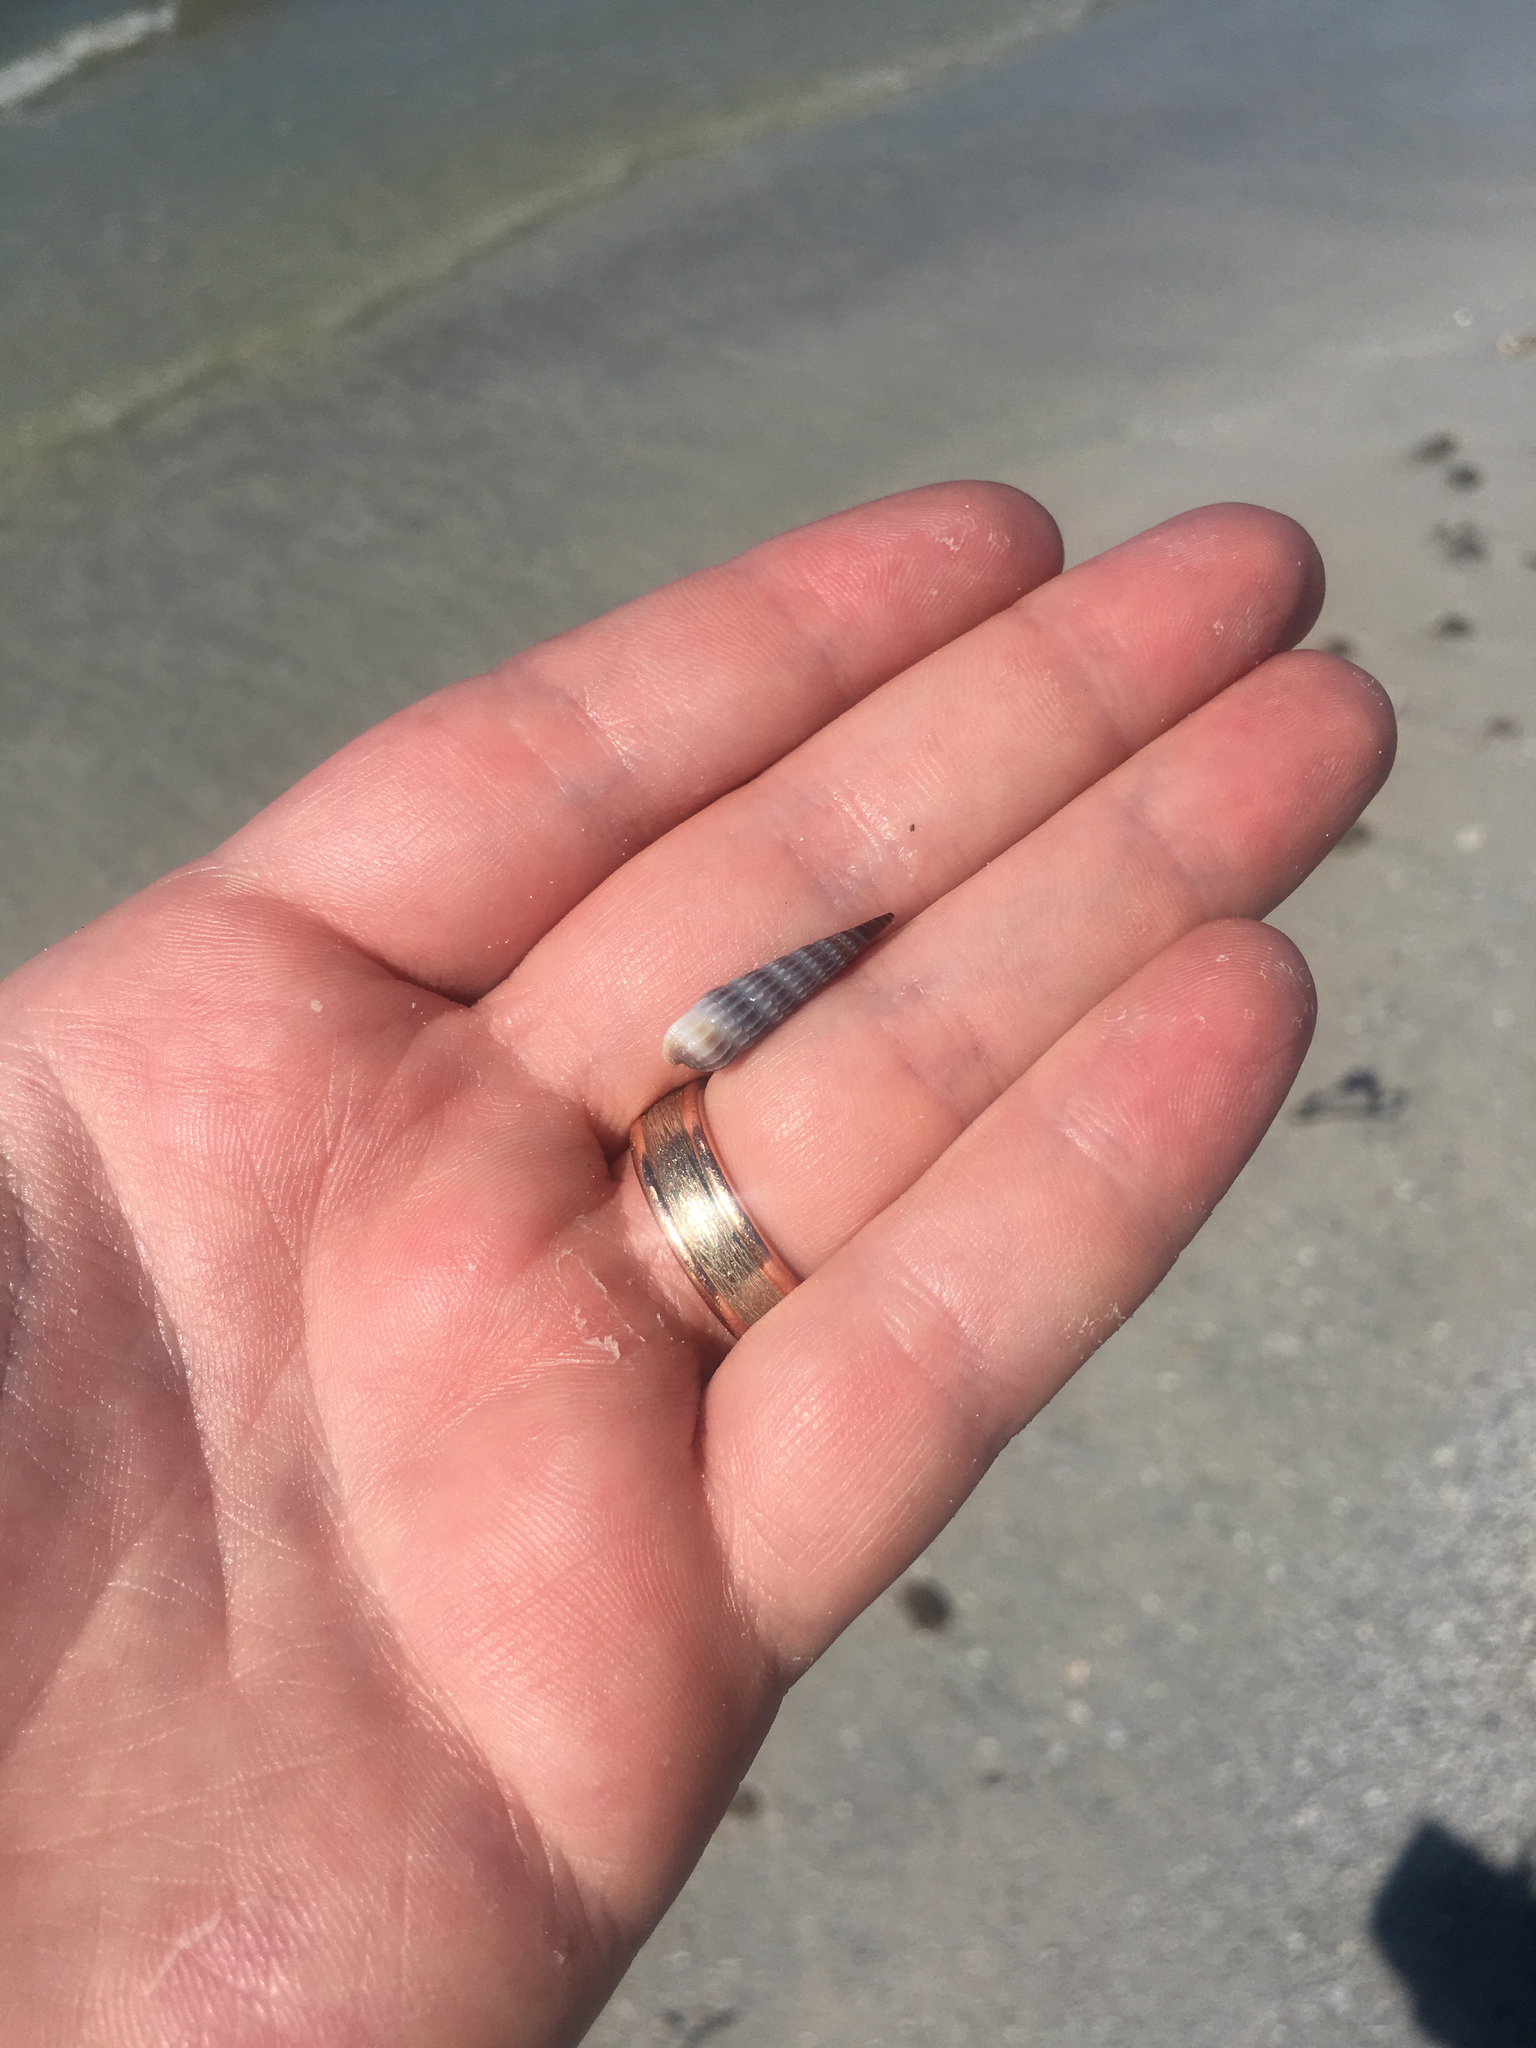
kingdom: Animalia
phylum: Mollusca
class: Gastropoda
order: Neogastropoda
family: Terebridae
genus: Neoterebra
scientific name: Neoterebra dislocata
